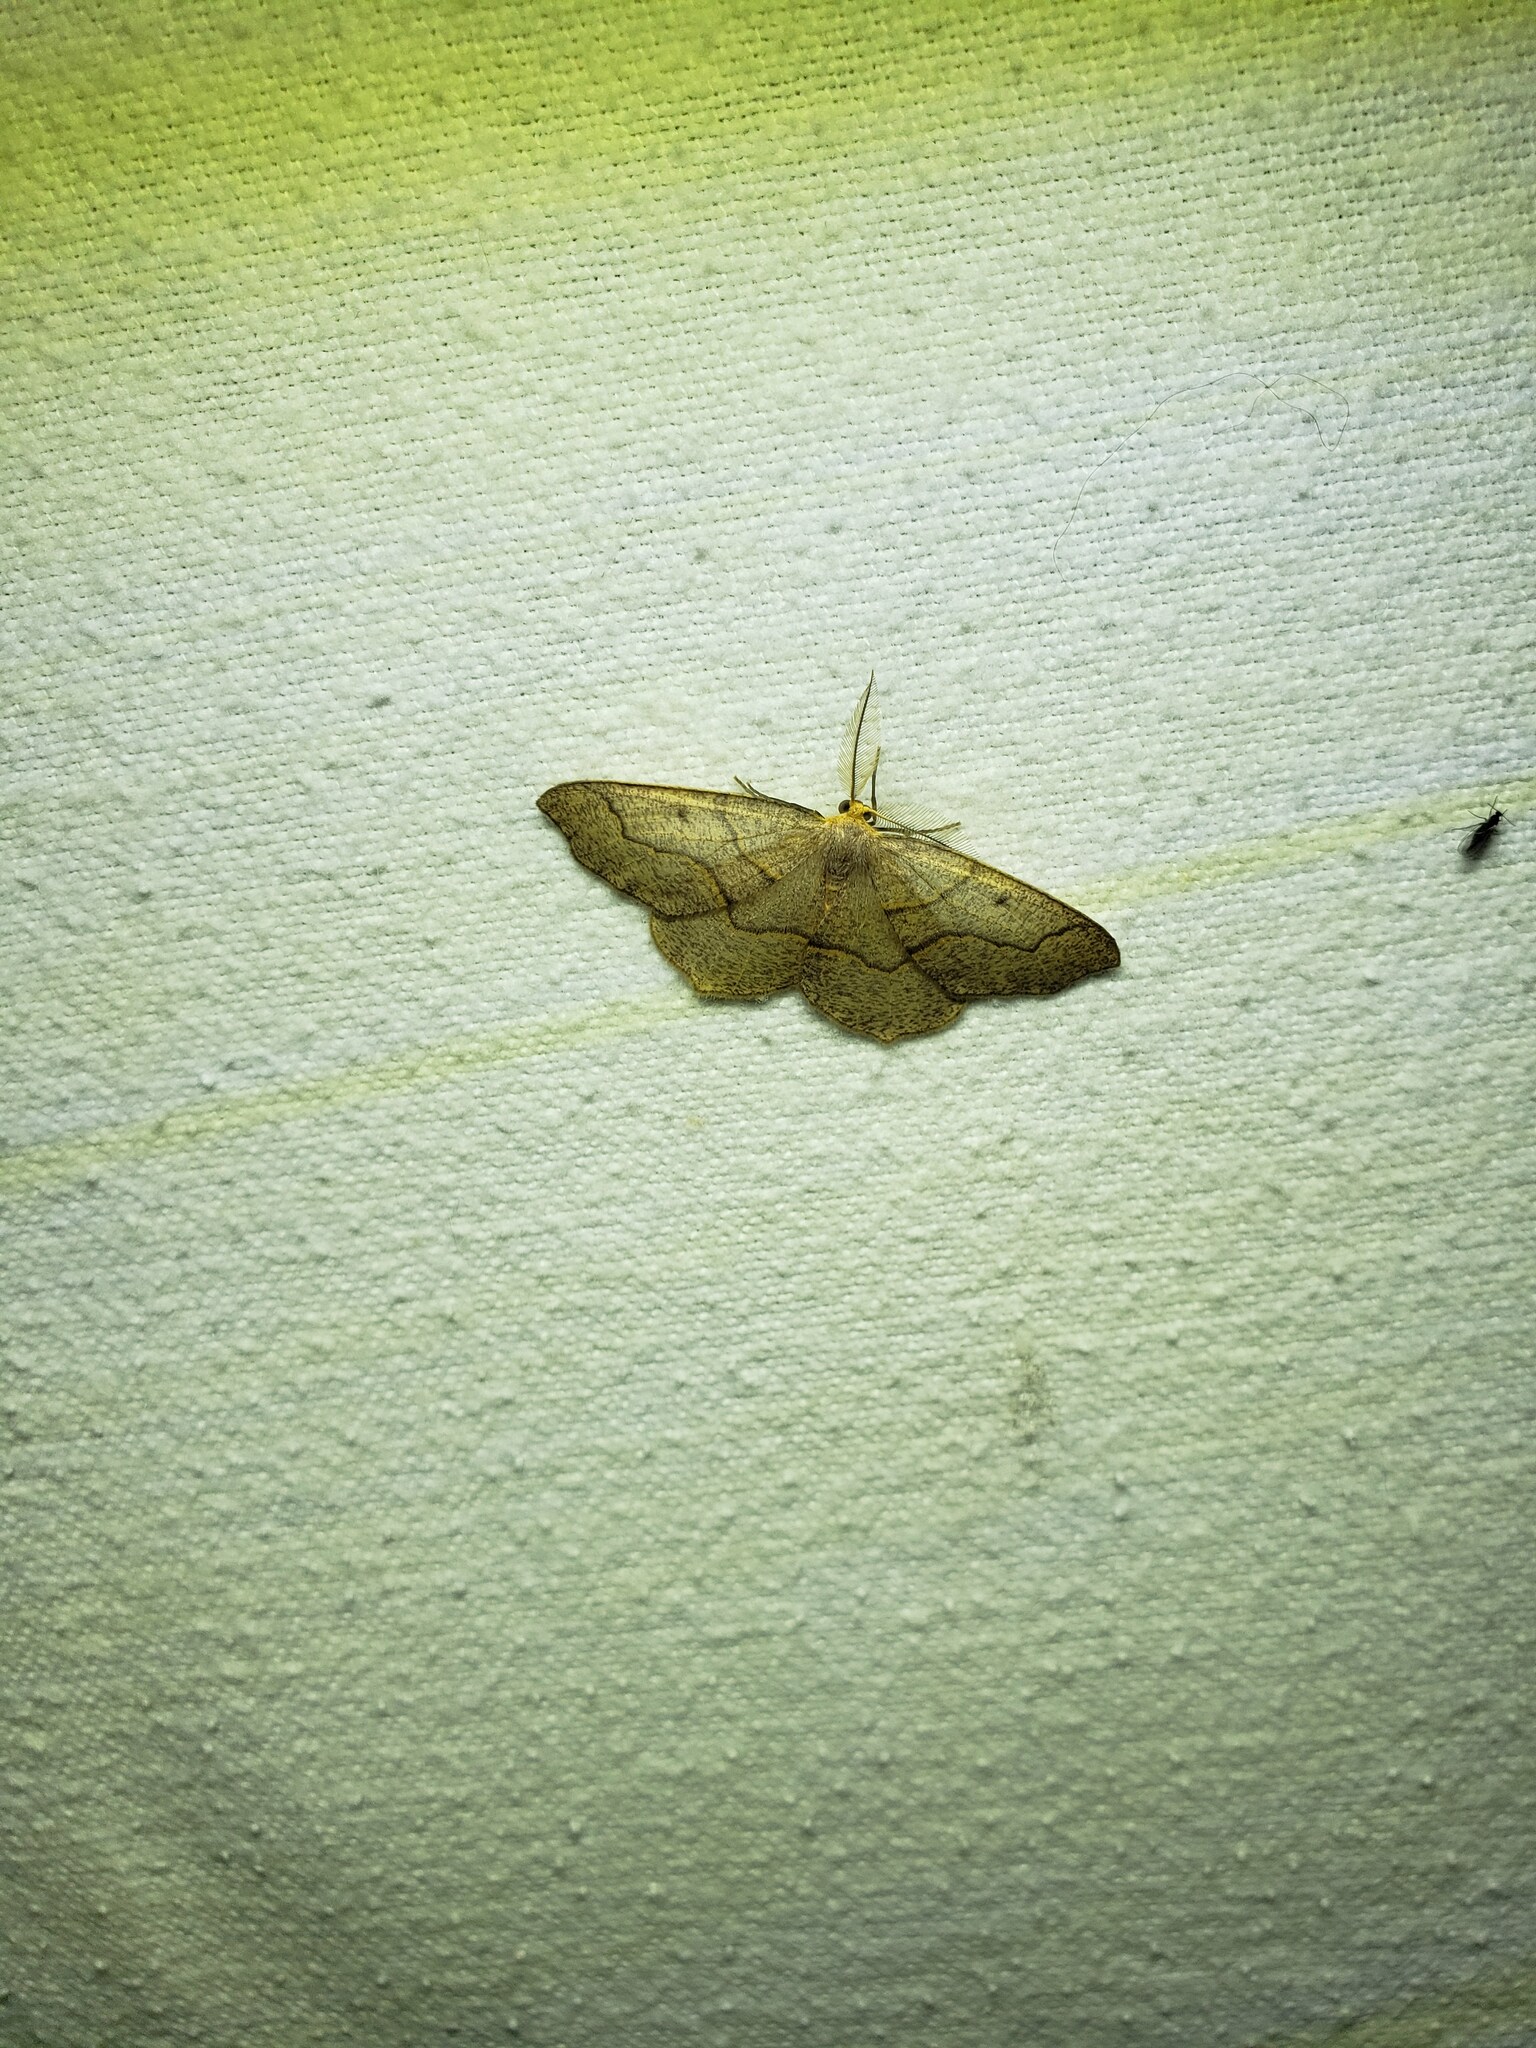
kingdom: Animalia
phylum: Arthropoda
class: Insecta
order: Lepidoptera
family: Geometridae
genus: Lambdina
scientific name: Lambdina fiscellaria
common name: Hemlock looper
